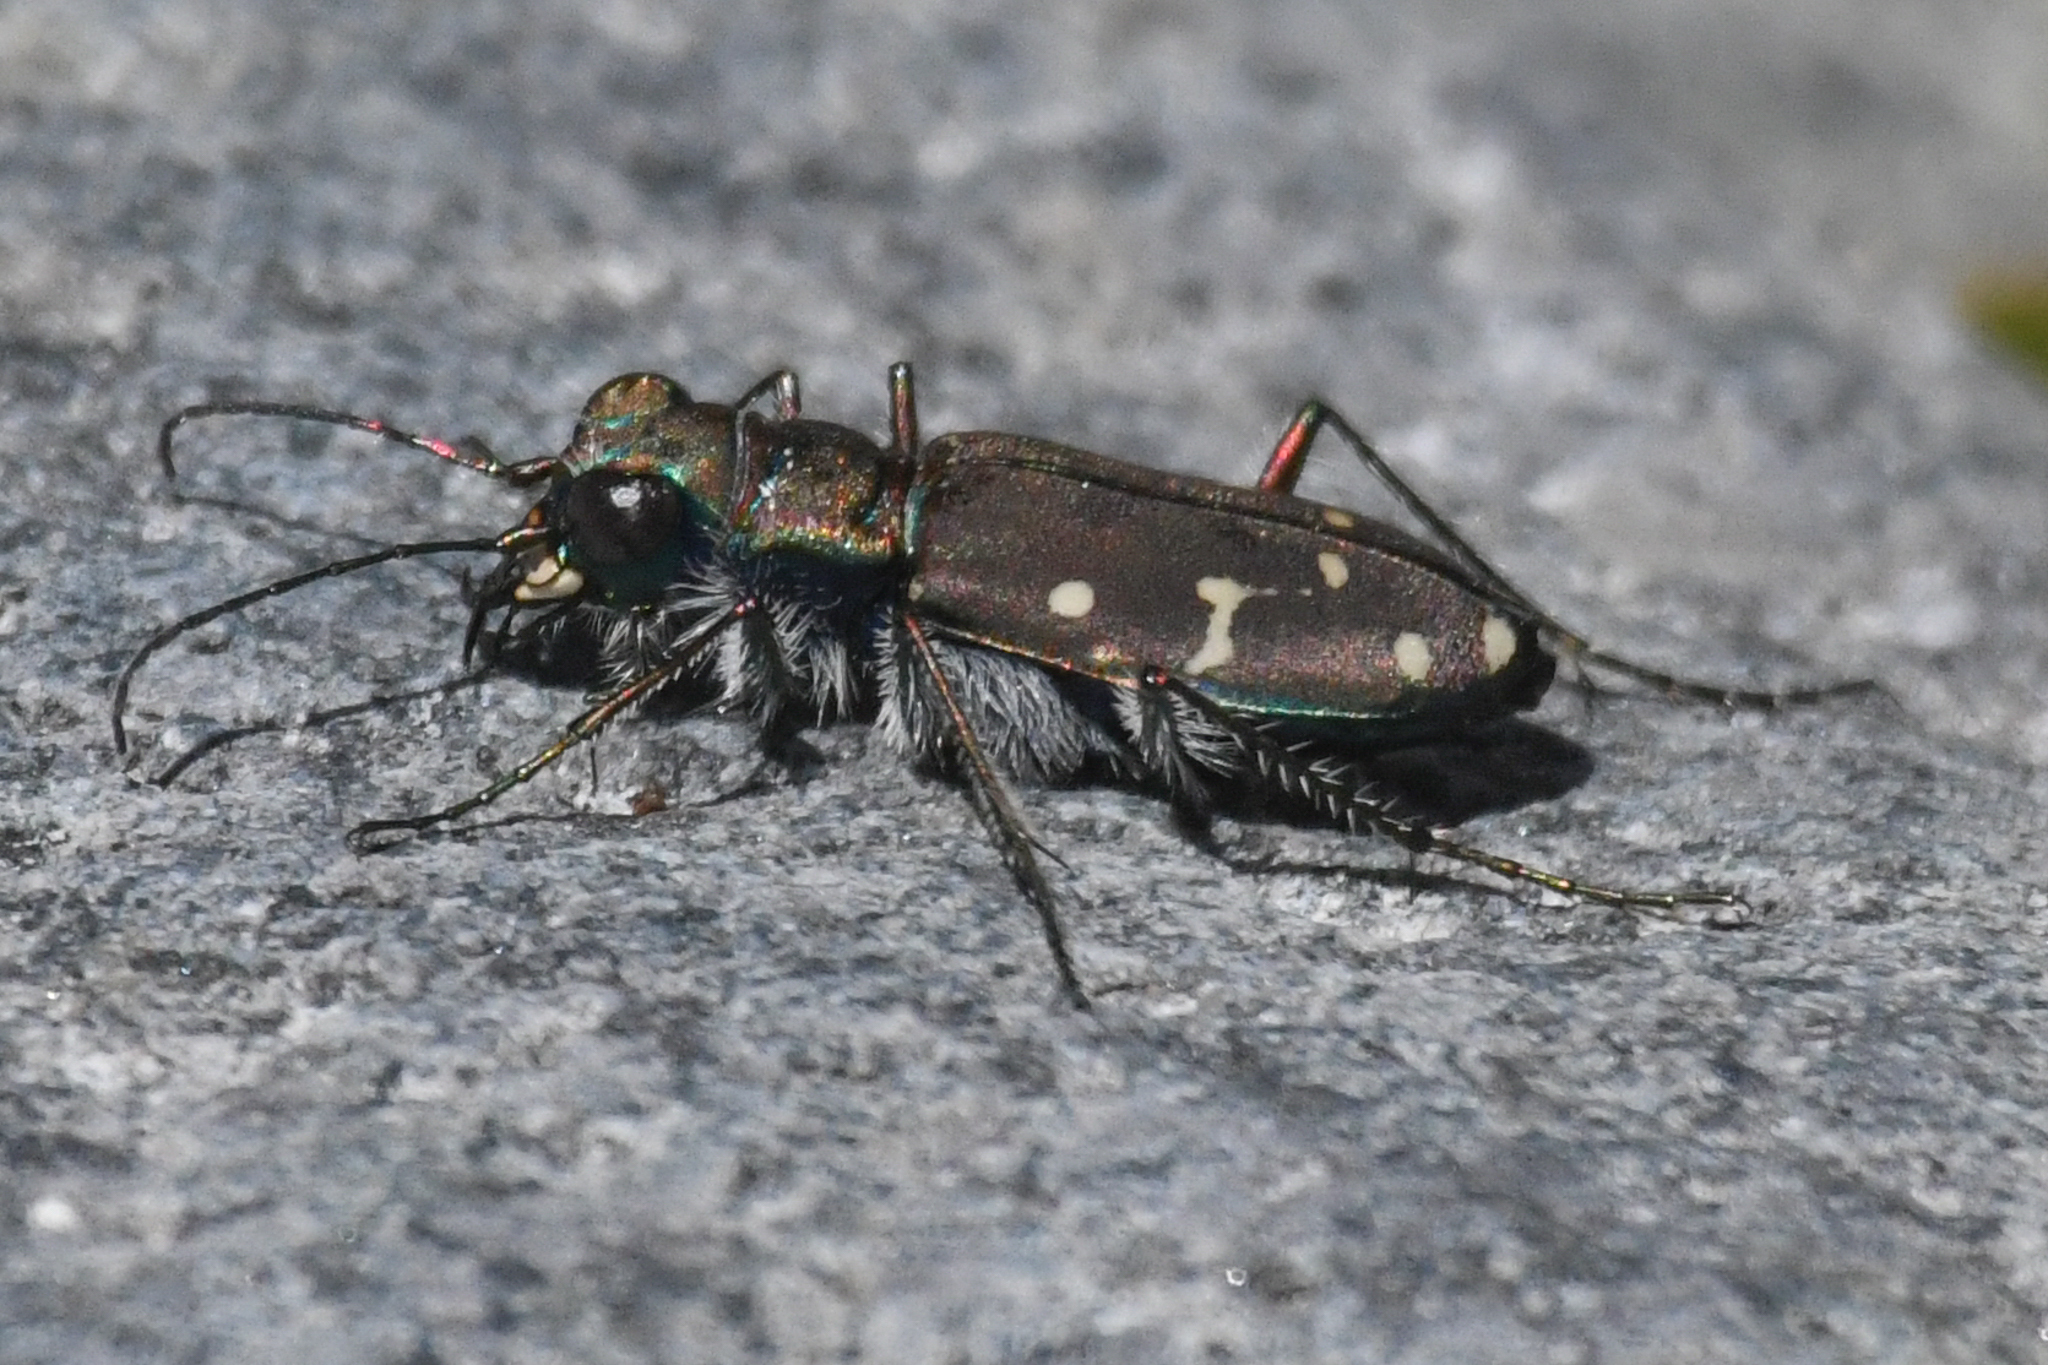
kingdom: Animalia
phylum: Arthropoda
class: Insecta
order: Coleoptera
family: Carabidae
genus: Cicindela
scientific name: Cicindela oregona
